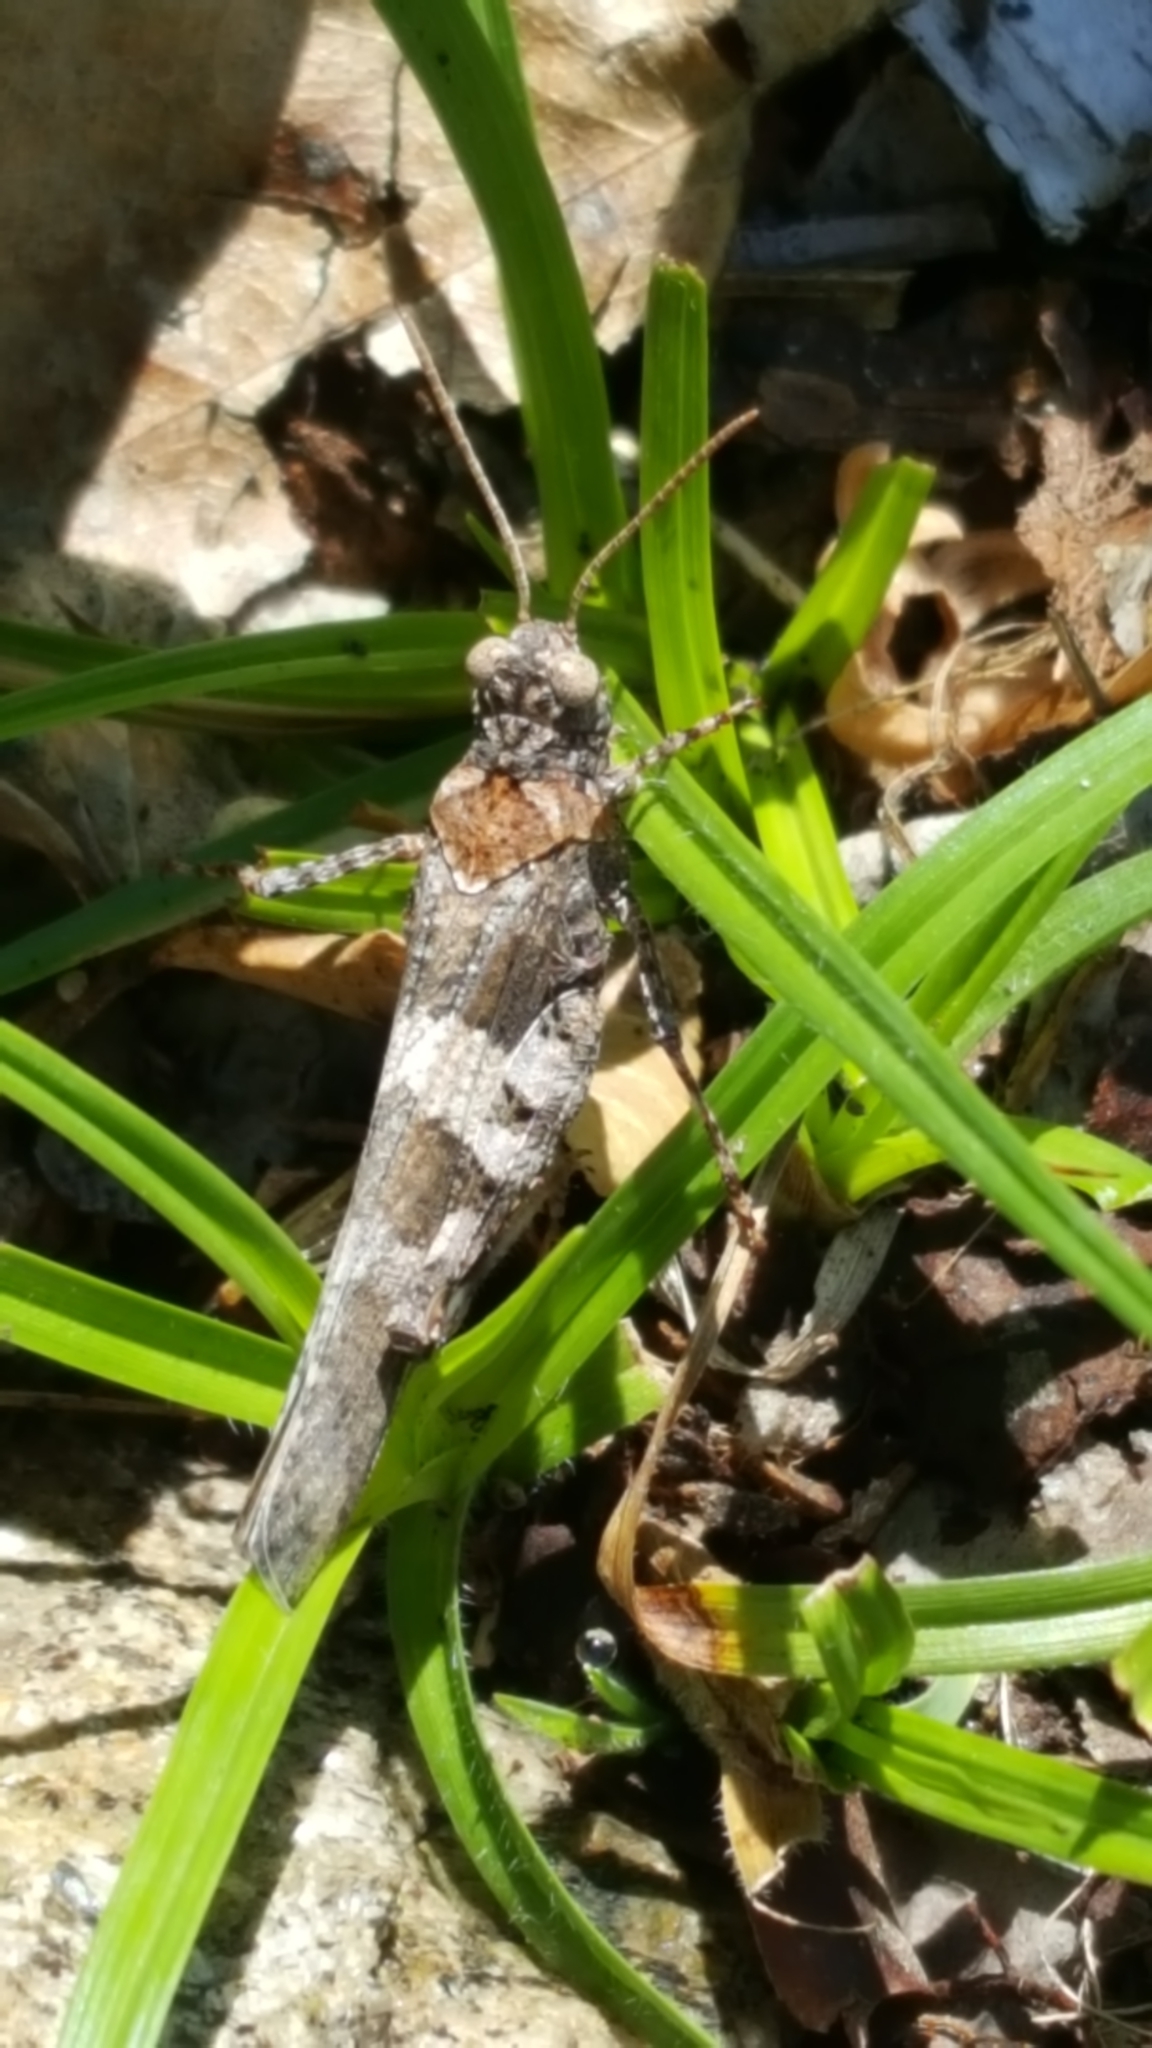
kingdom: Animalia
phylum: Arthropoda
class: Insecta
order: Orthoptera
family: Acrididae
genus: Oedipoda
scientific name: Oedipoda caerulescens
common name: Blue-winged grasshopper
